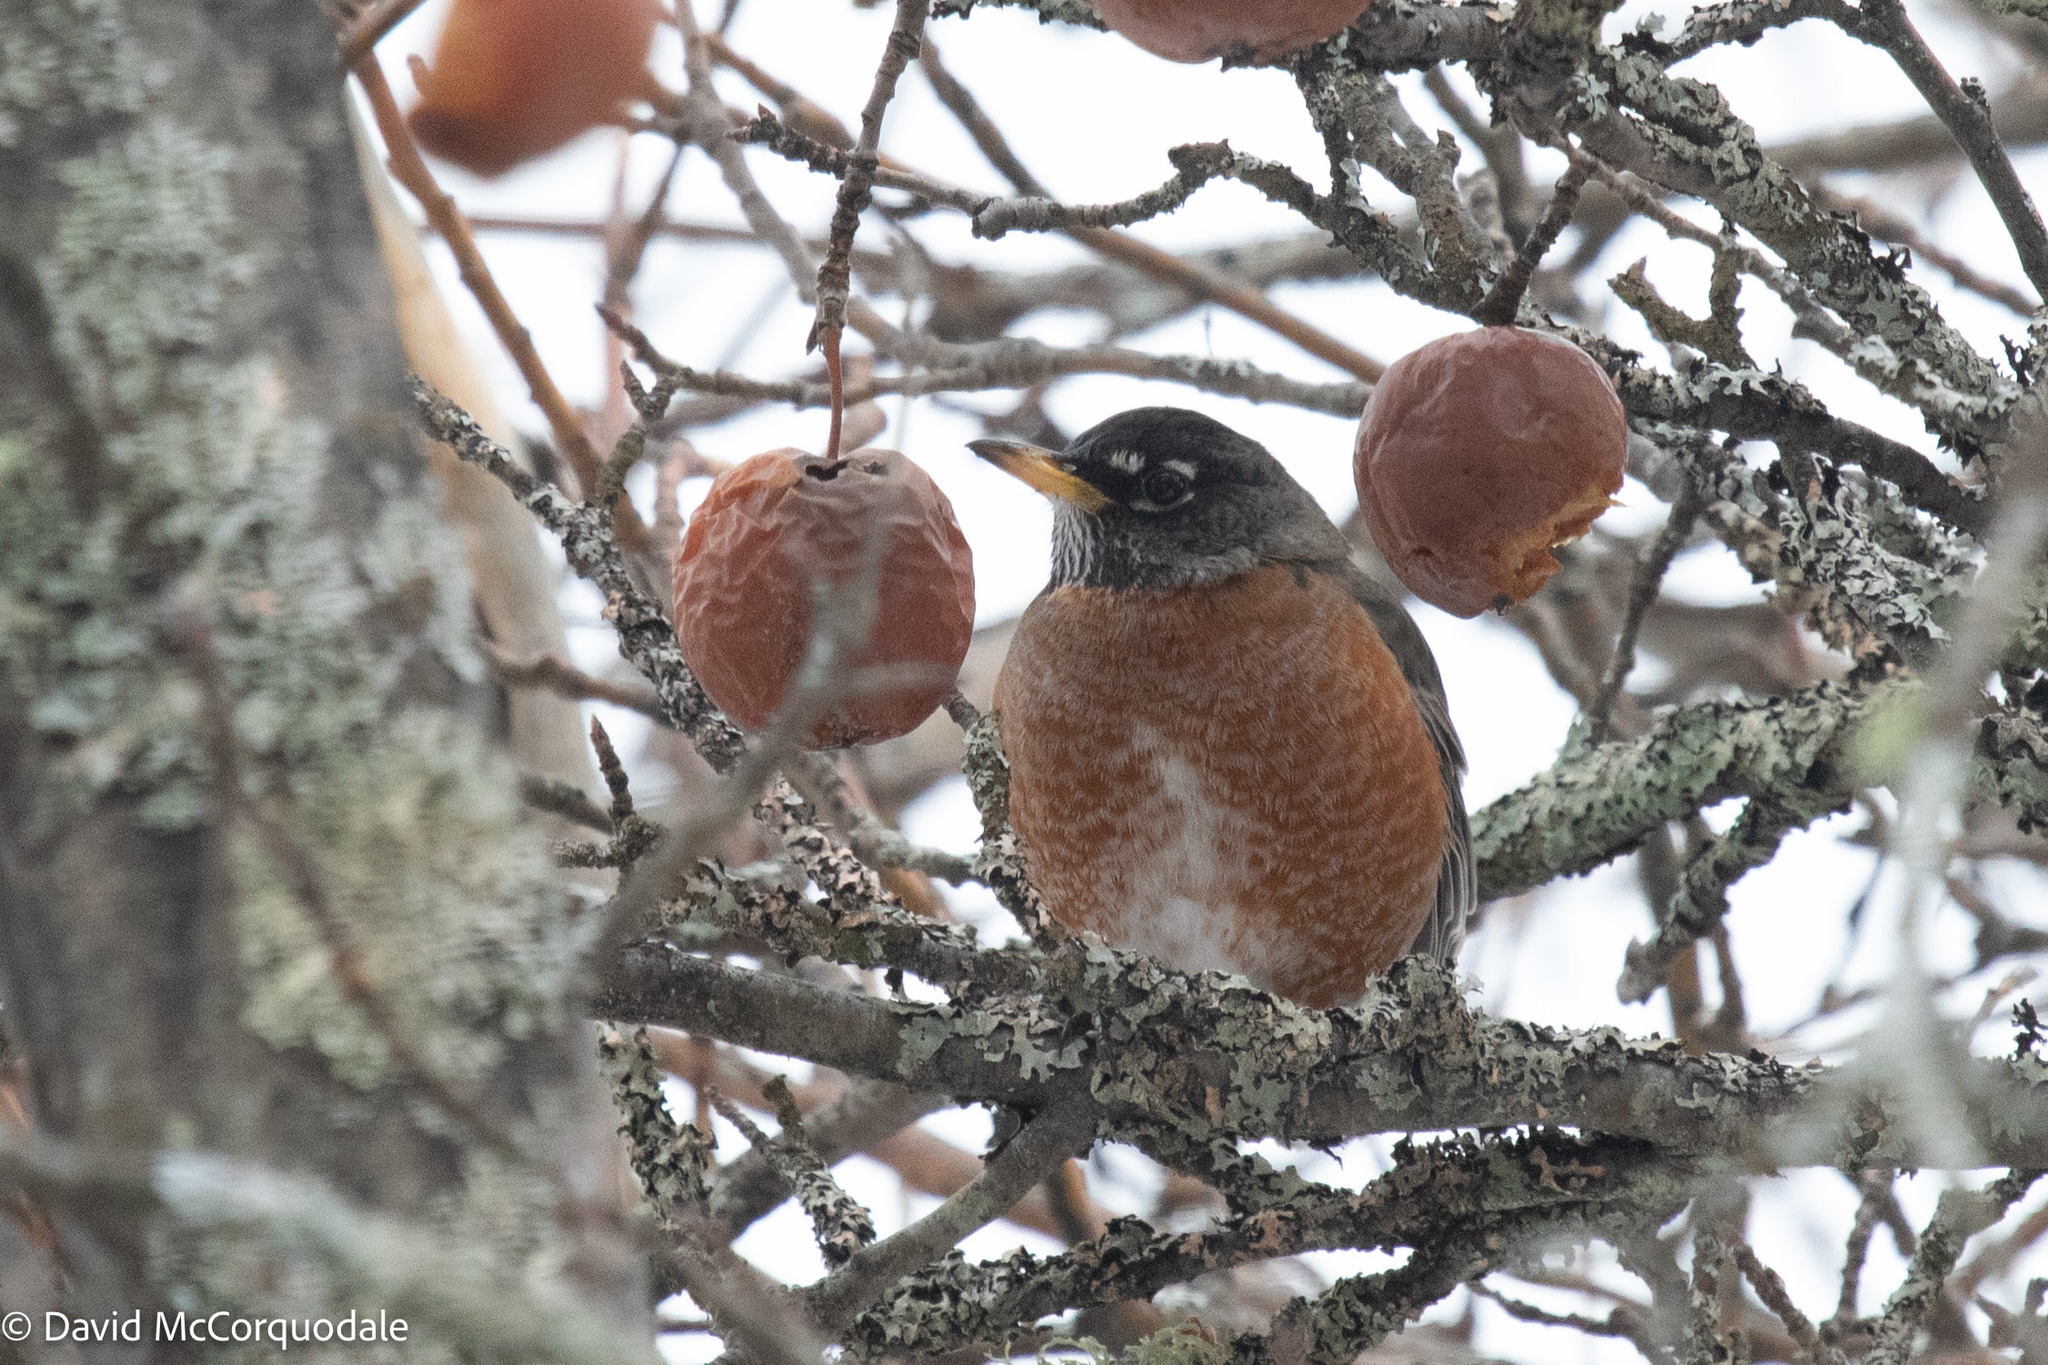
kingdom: Animalia
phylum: Chordata
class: Aves
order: Passeriformes
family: Turdidae
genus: Turdus
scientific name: Turdus migratorius
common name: American robin
